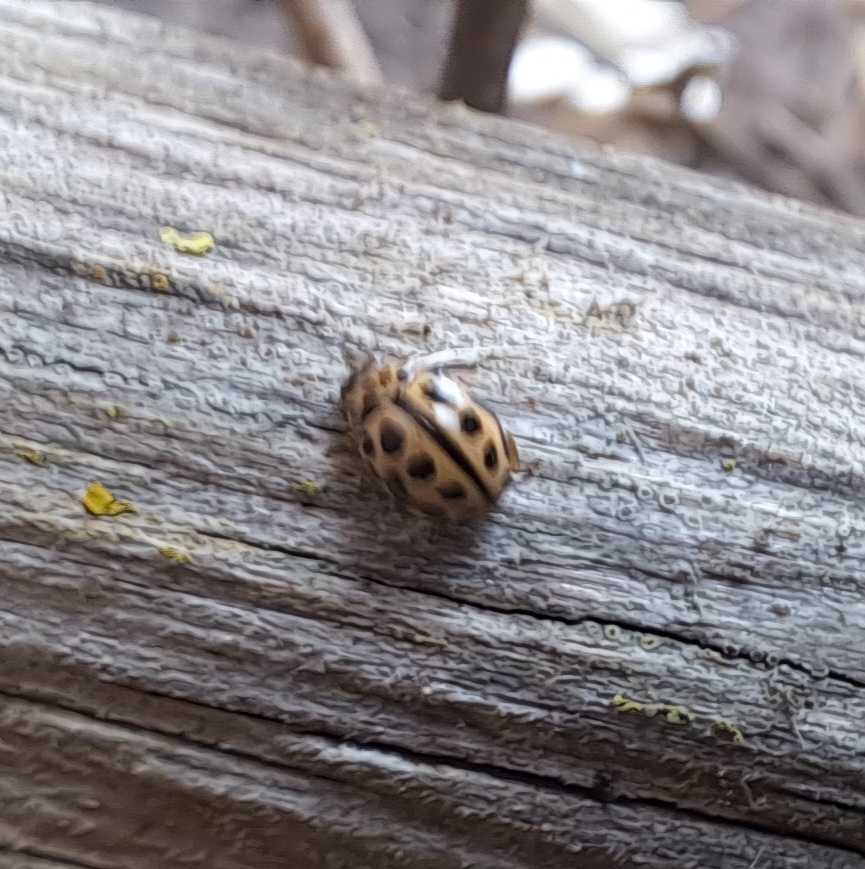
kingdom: Animalia
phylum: Arthropoda
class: Insecta
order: Coleoptera
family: Coccinellidae
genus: Tytthaspis
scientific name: Tytthaspis sedecimpunctata
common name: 16-spot ladybird
